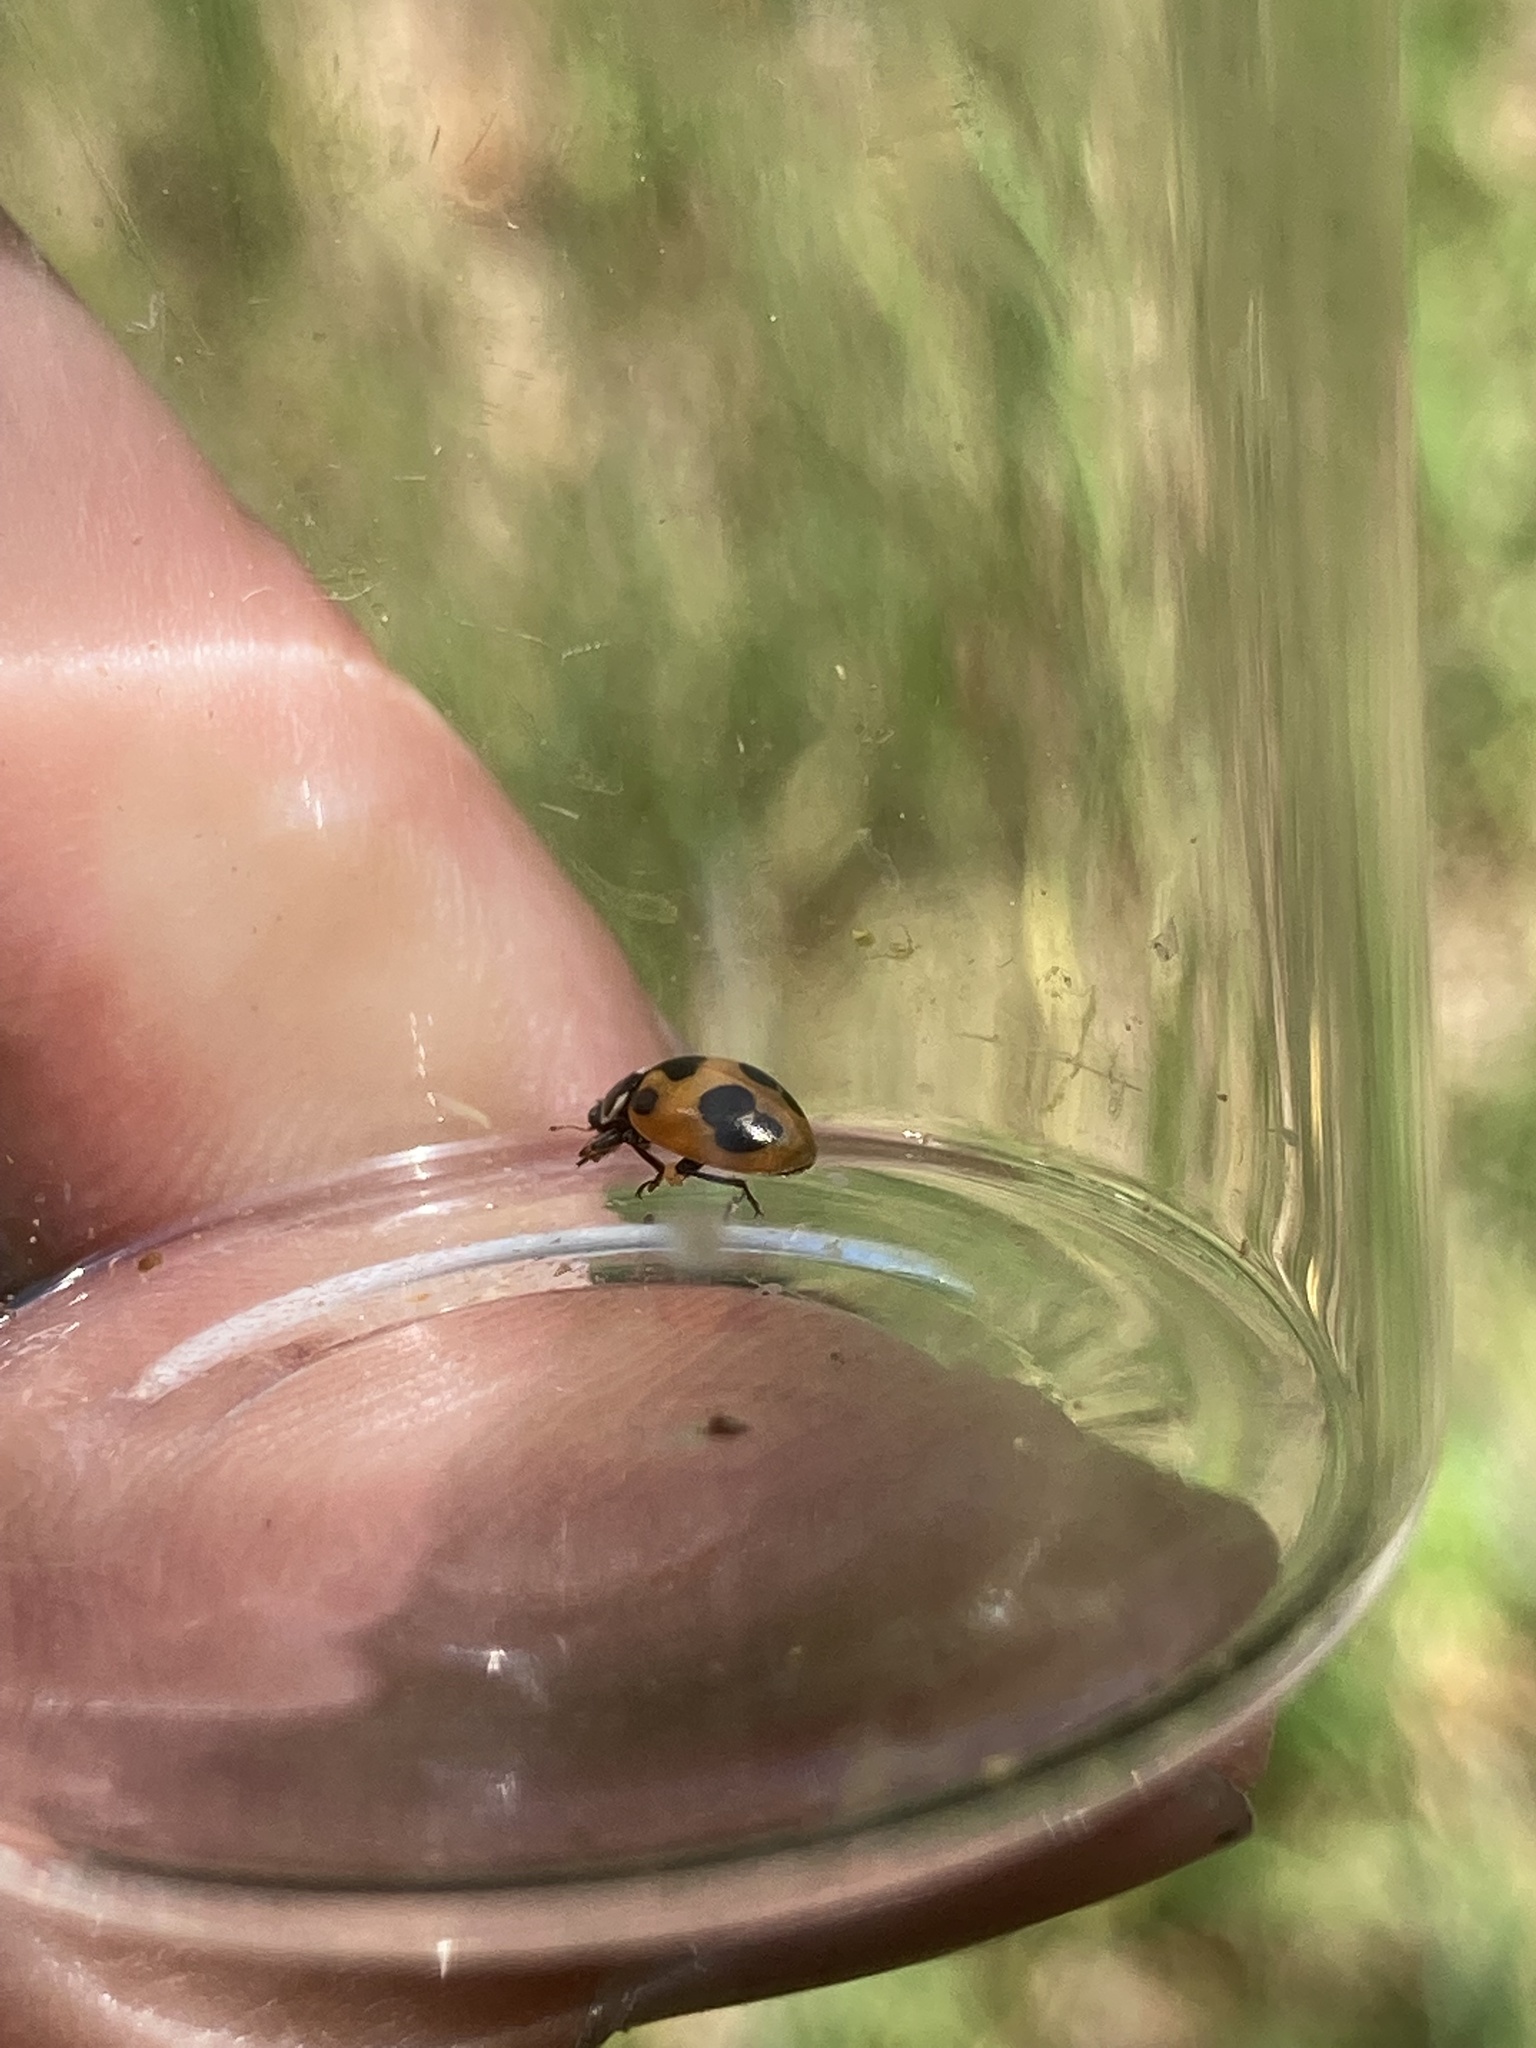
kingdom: Animalia
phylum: Arthropoda
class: Insecta
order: Coleoptera
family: Coccinellidae
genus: Hippodamia
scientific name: Hippodamia parenthesis
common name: Parenthesis lady beetle
